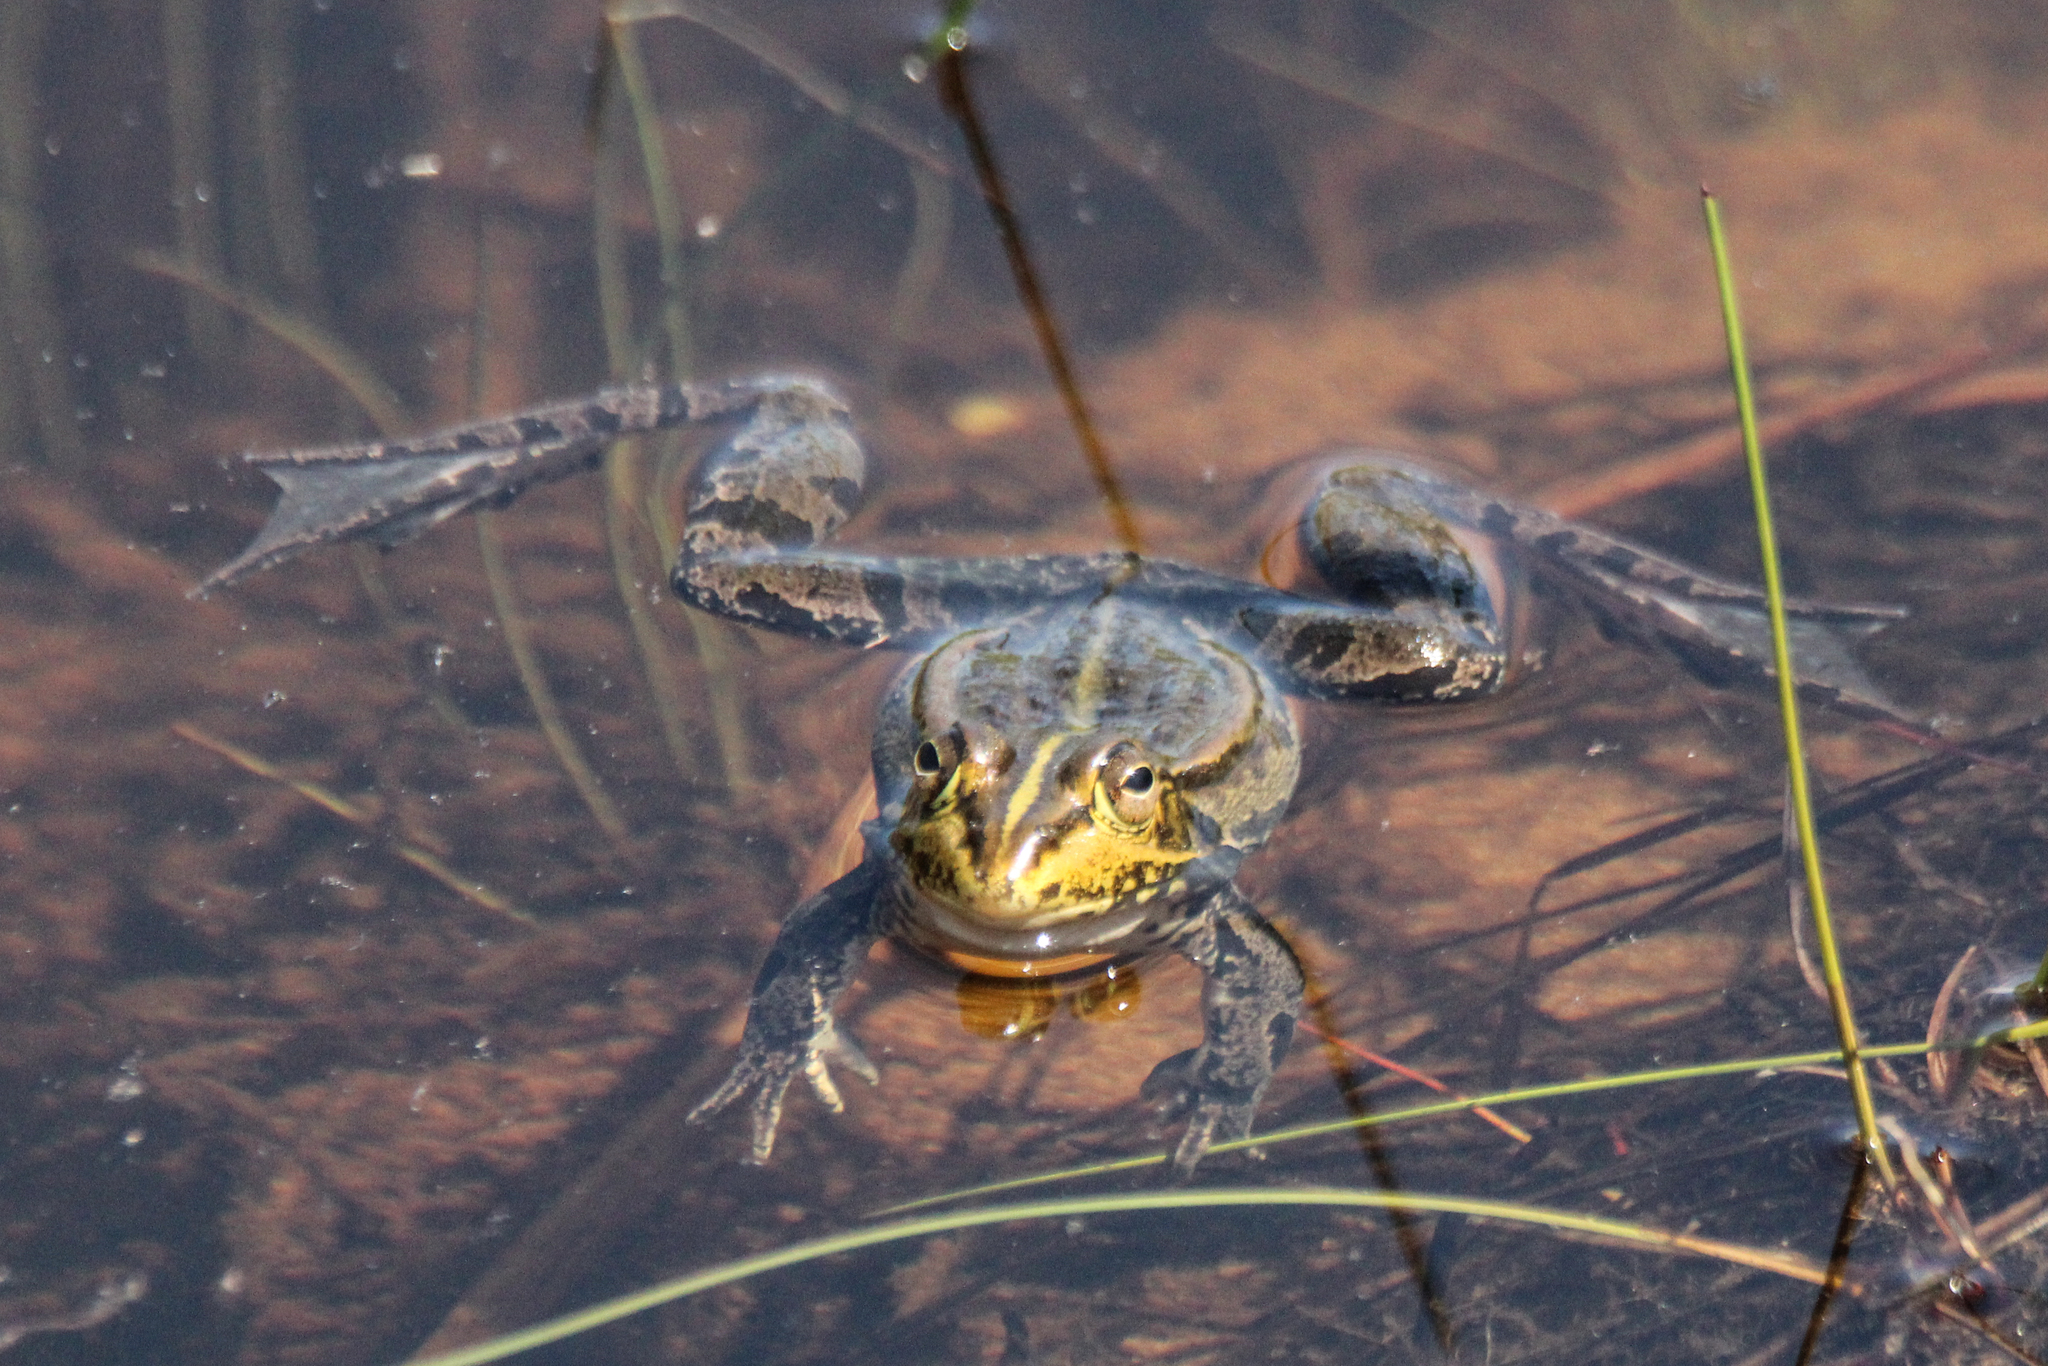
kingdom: Animalia
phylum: Chordata
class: Amphibia
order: Anura
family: Ranidae
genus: Pelophylax
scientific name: Pelophylax nigromaculatus
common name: Black-spotted pond frog
